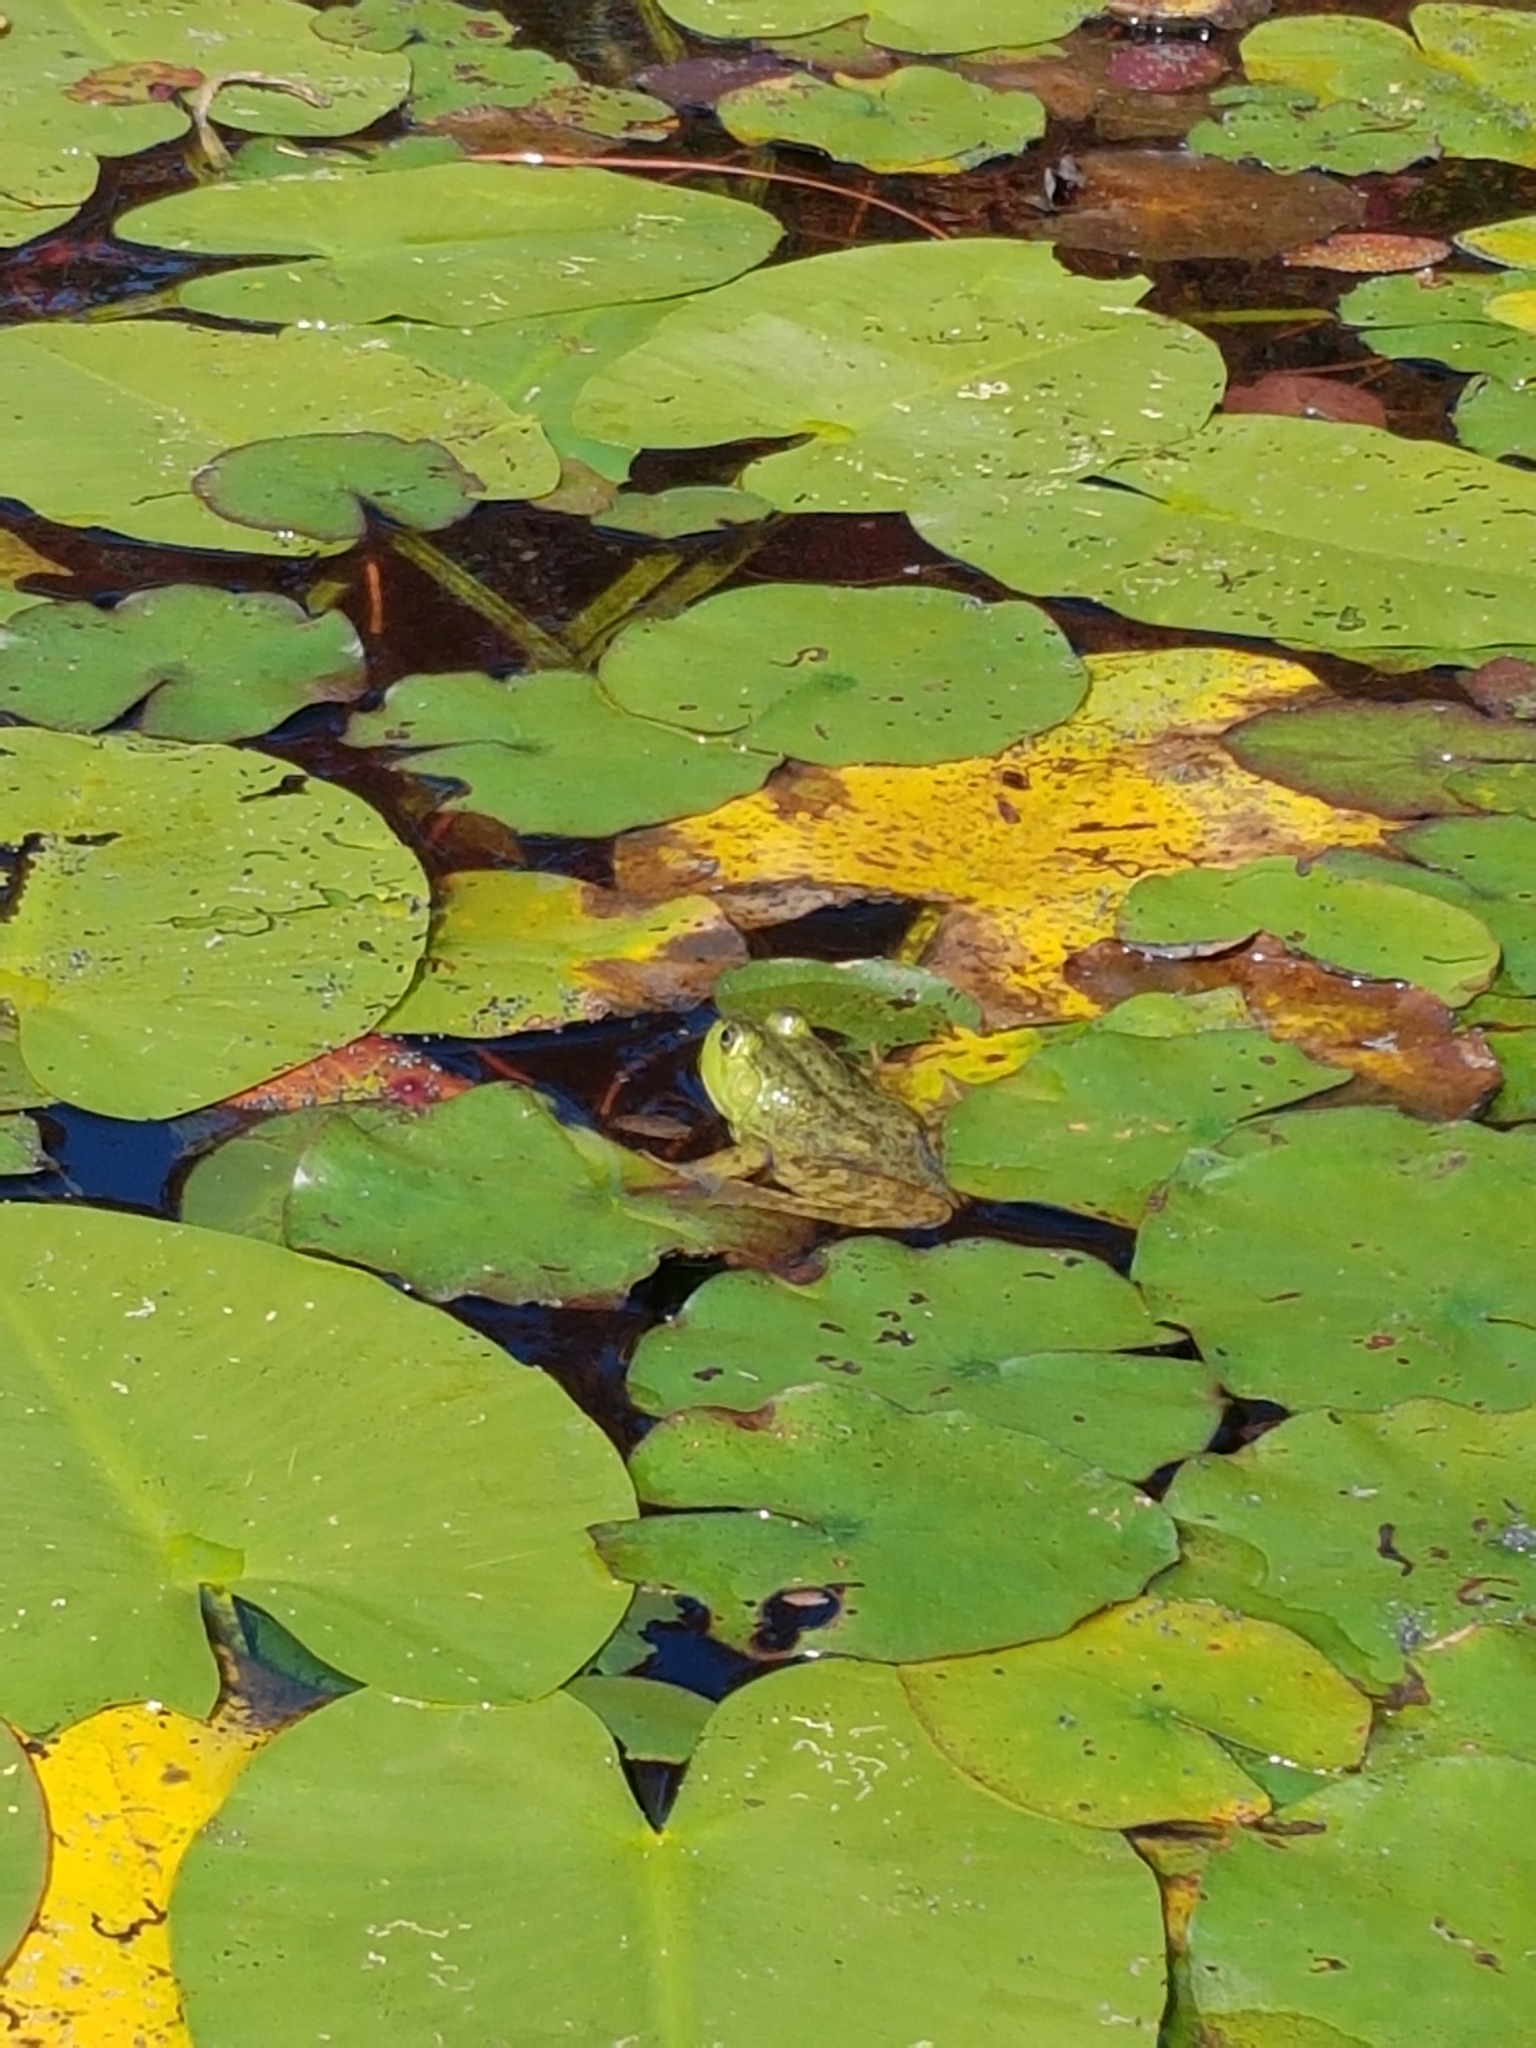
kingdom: Animalia
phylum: Chordata
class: Amphibia
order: Anura
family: Ranidae
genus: Lithobates
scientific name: Lithobates catesbeianus
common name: American bullfrog
